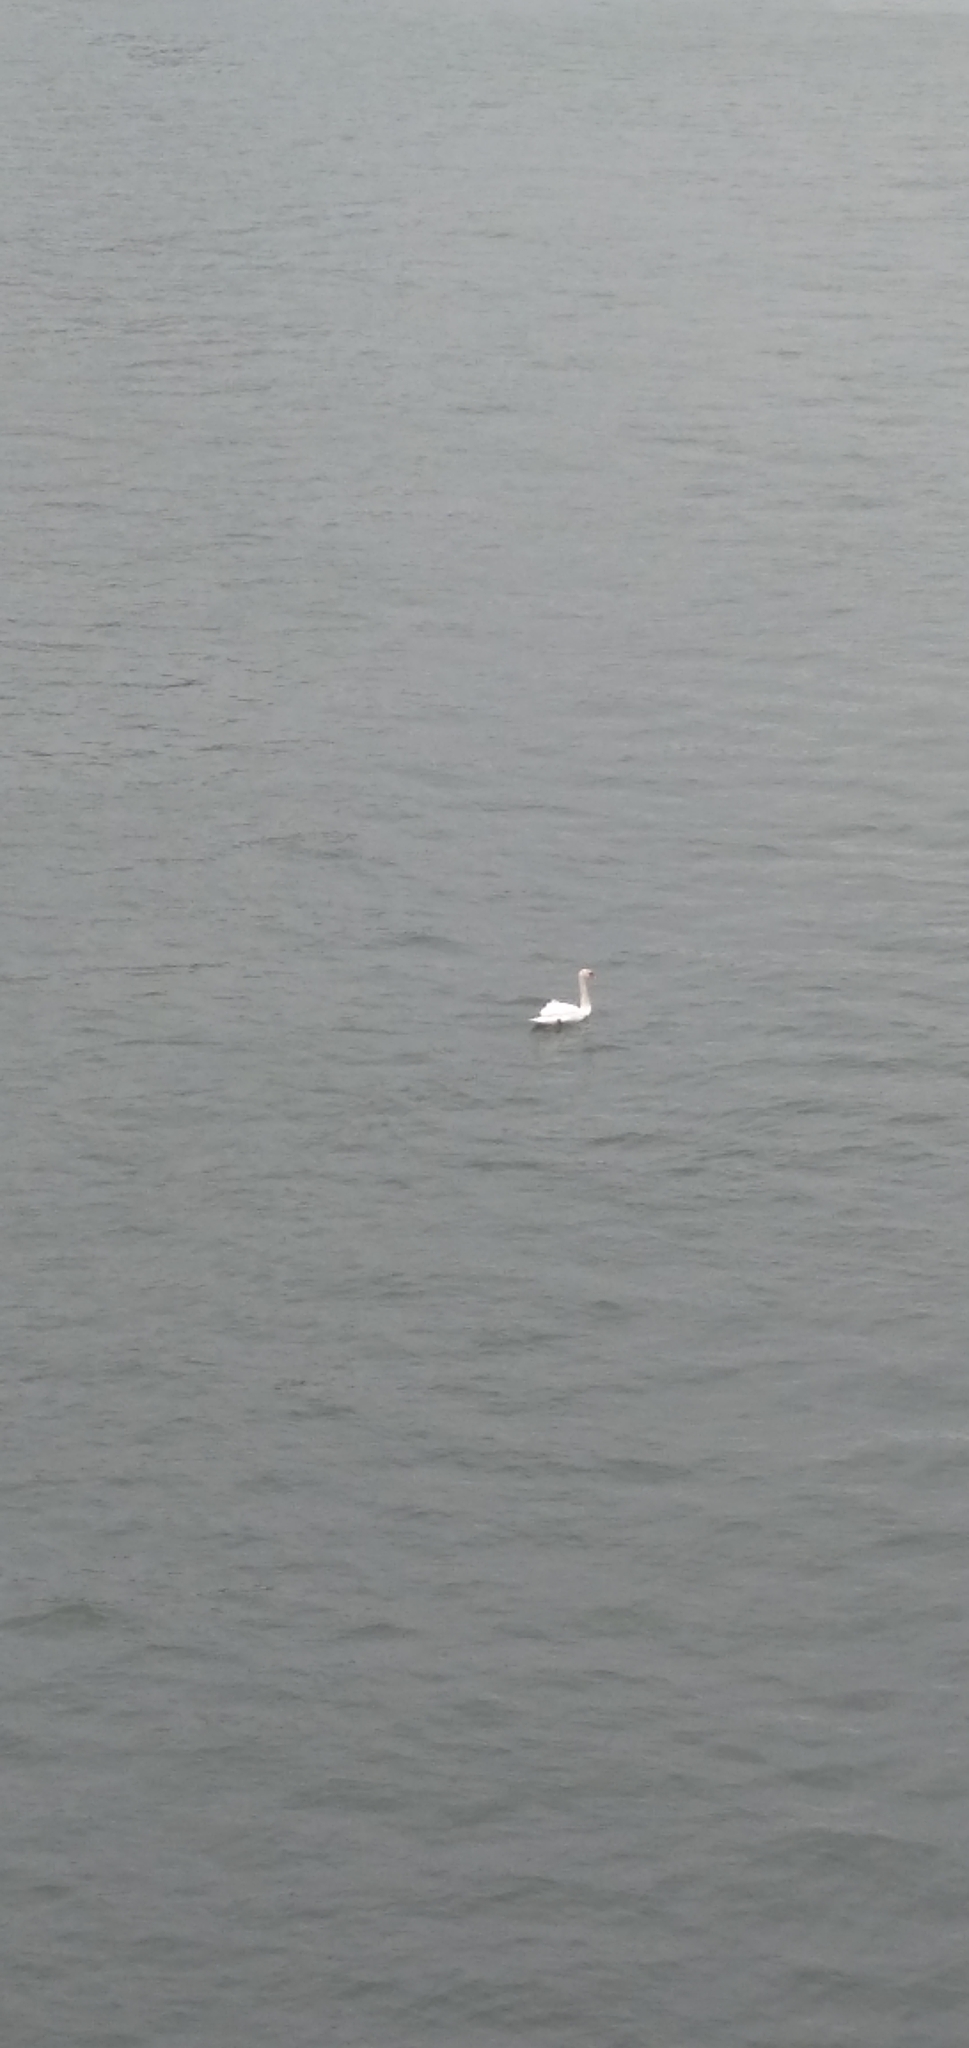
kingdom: Animalia
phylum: Chordata
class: Aves
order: Anseriformes
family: Anatidae
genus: Cygnus
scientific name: Cygnus olor
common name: Mute swan
